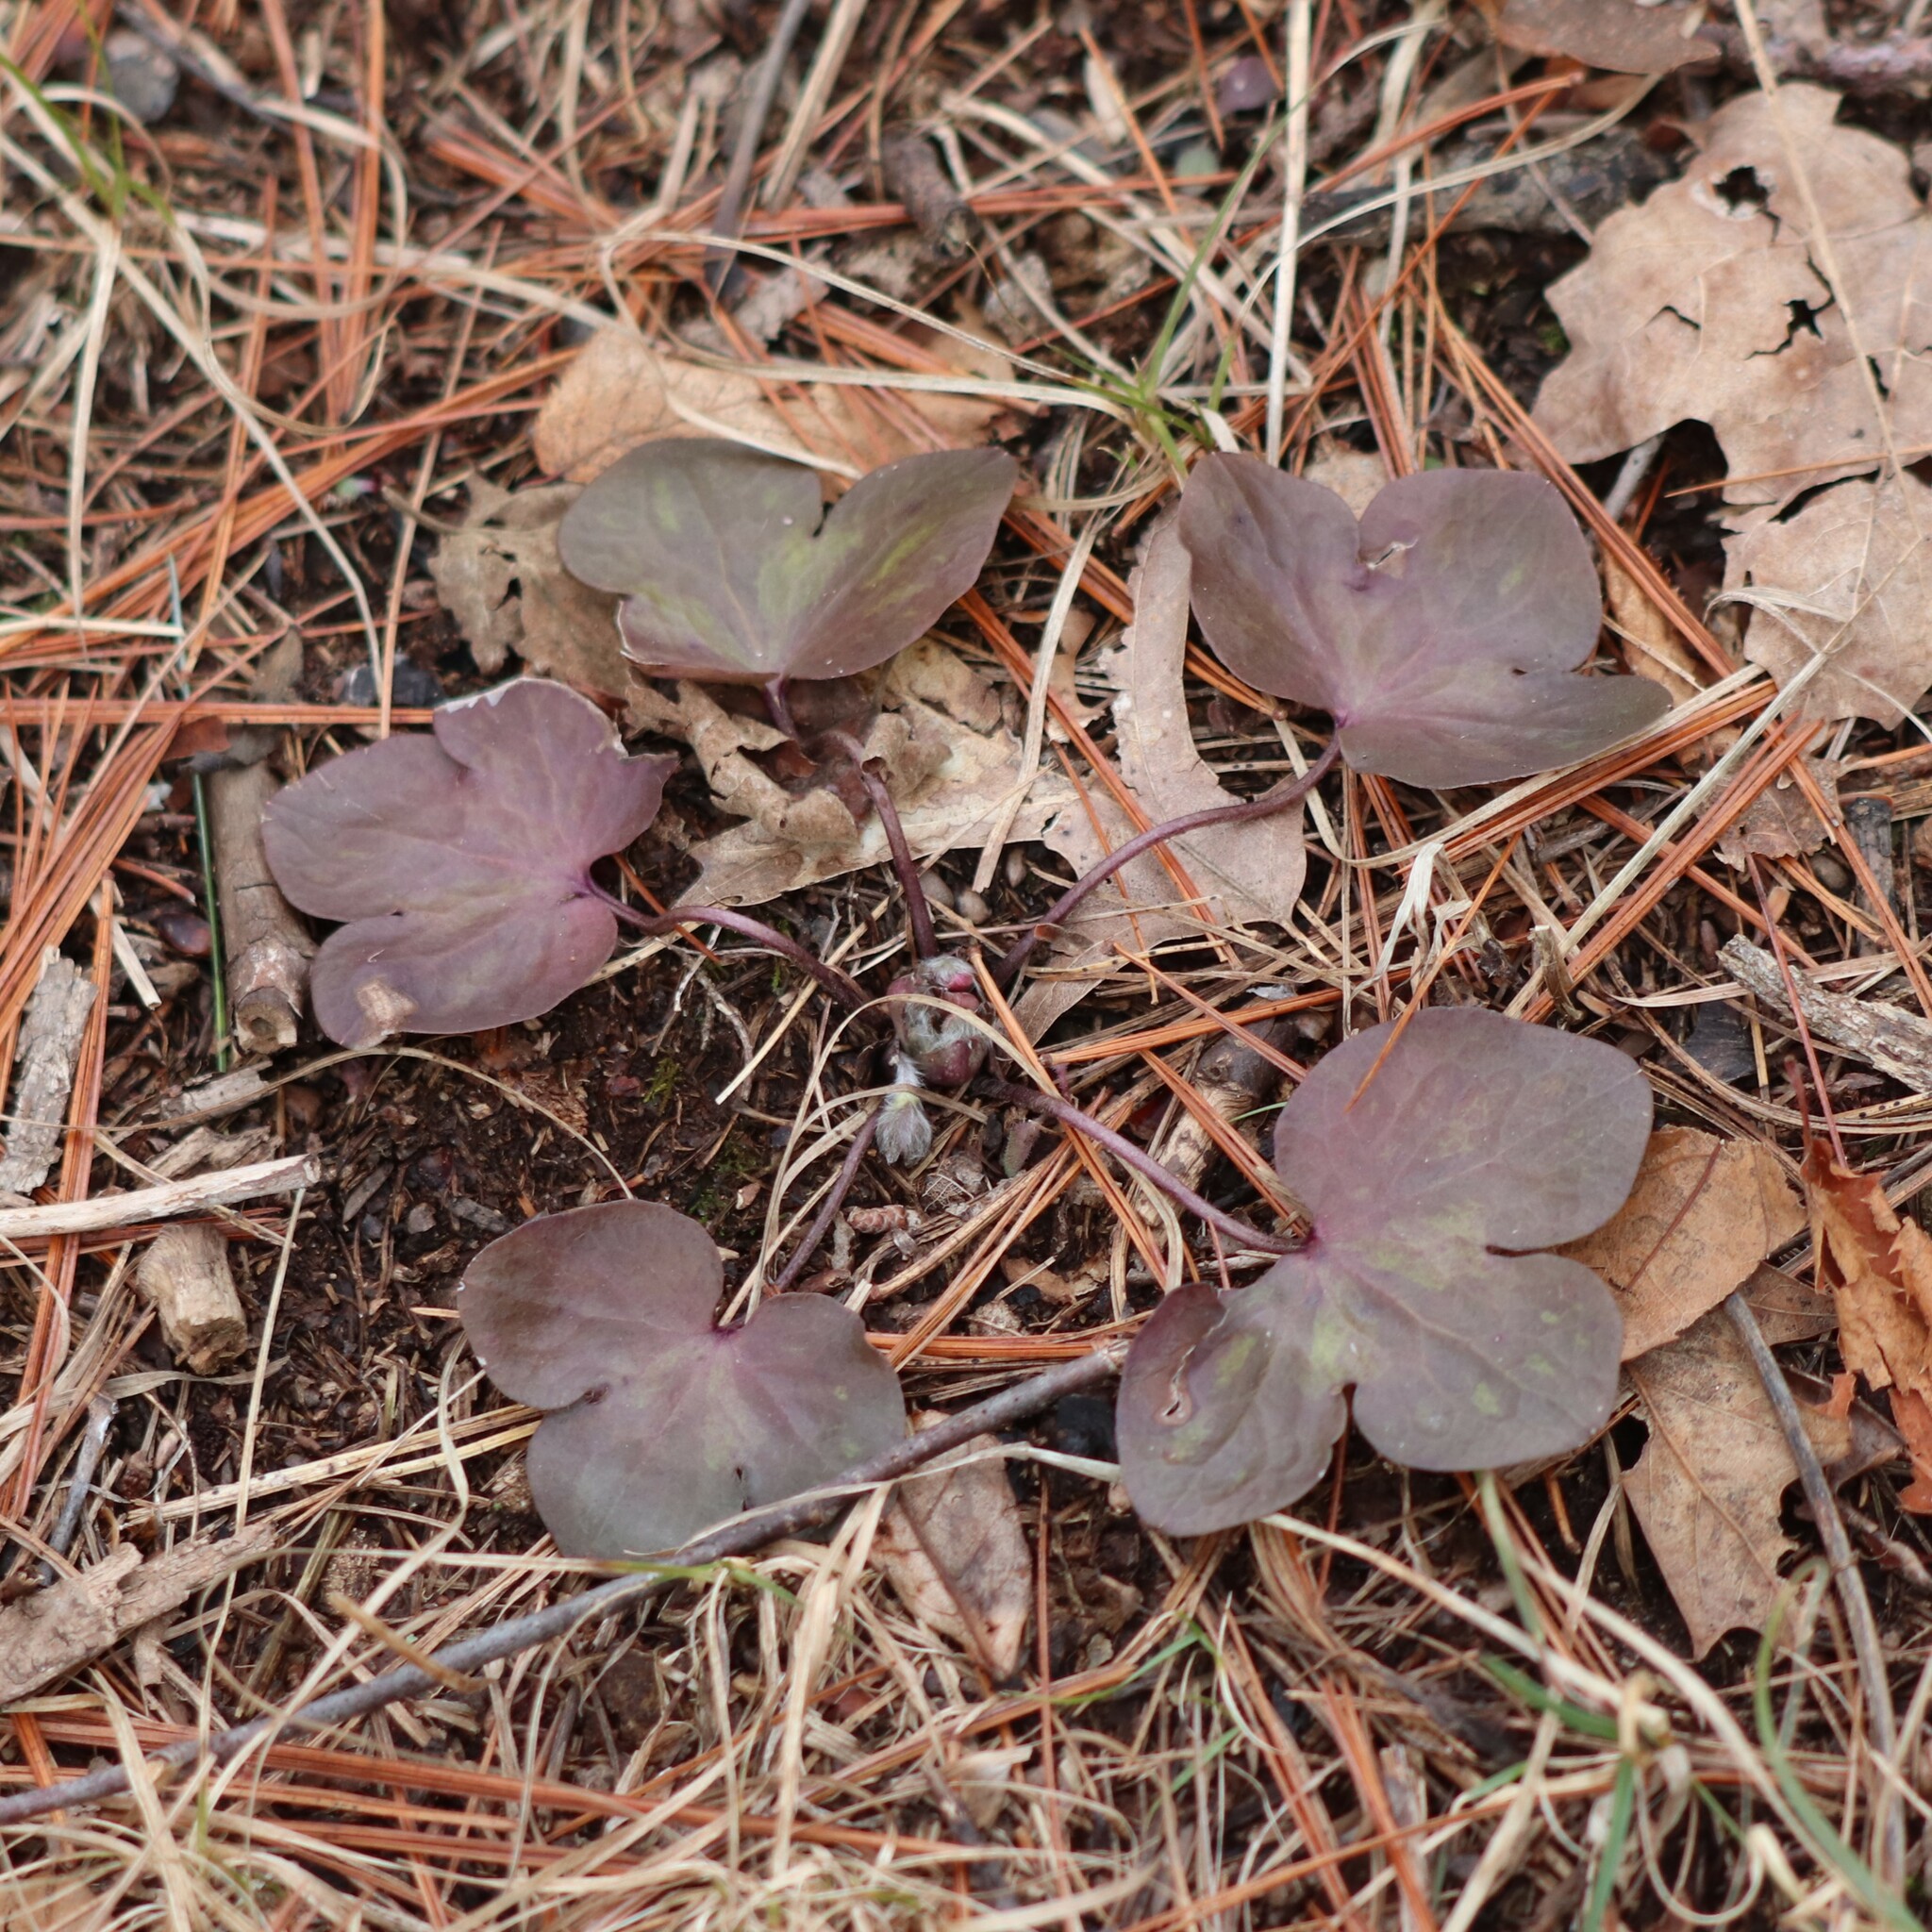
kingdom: Plantae
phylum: Tracheophyta
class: Magnoliopsida
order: Ranunculales
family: Ranunculaceae
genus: Hepatica
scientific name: Hepatica americana
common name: American hepatica
